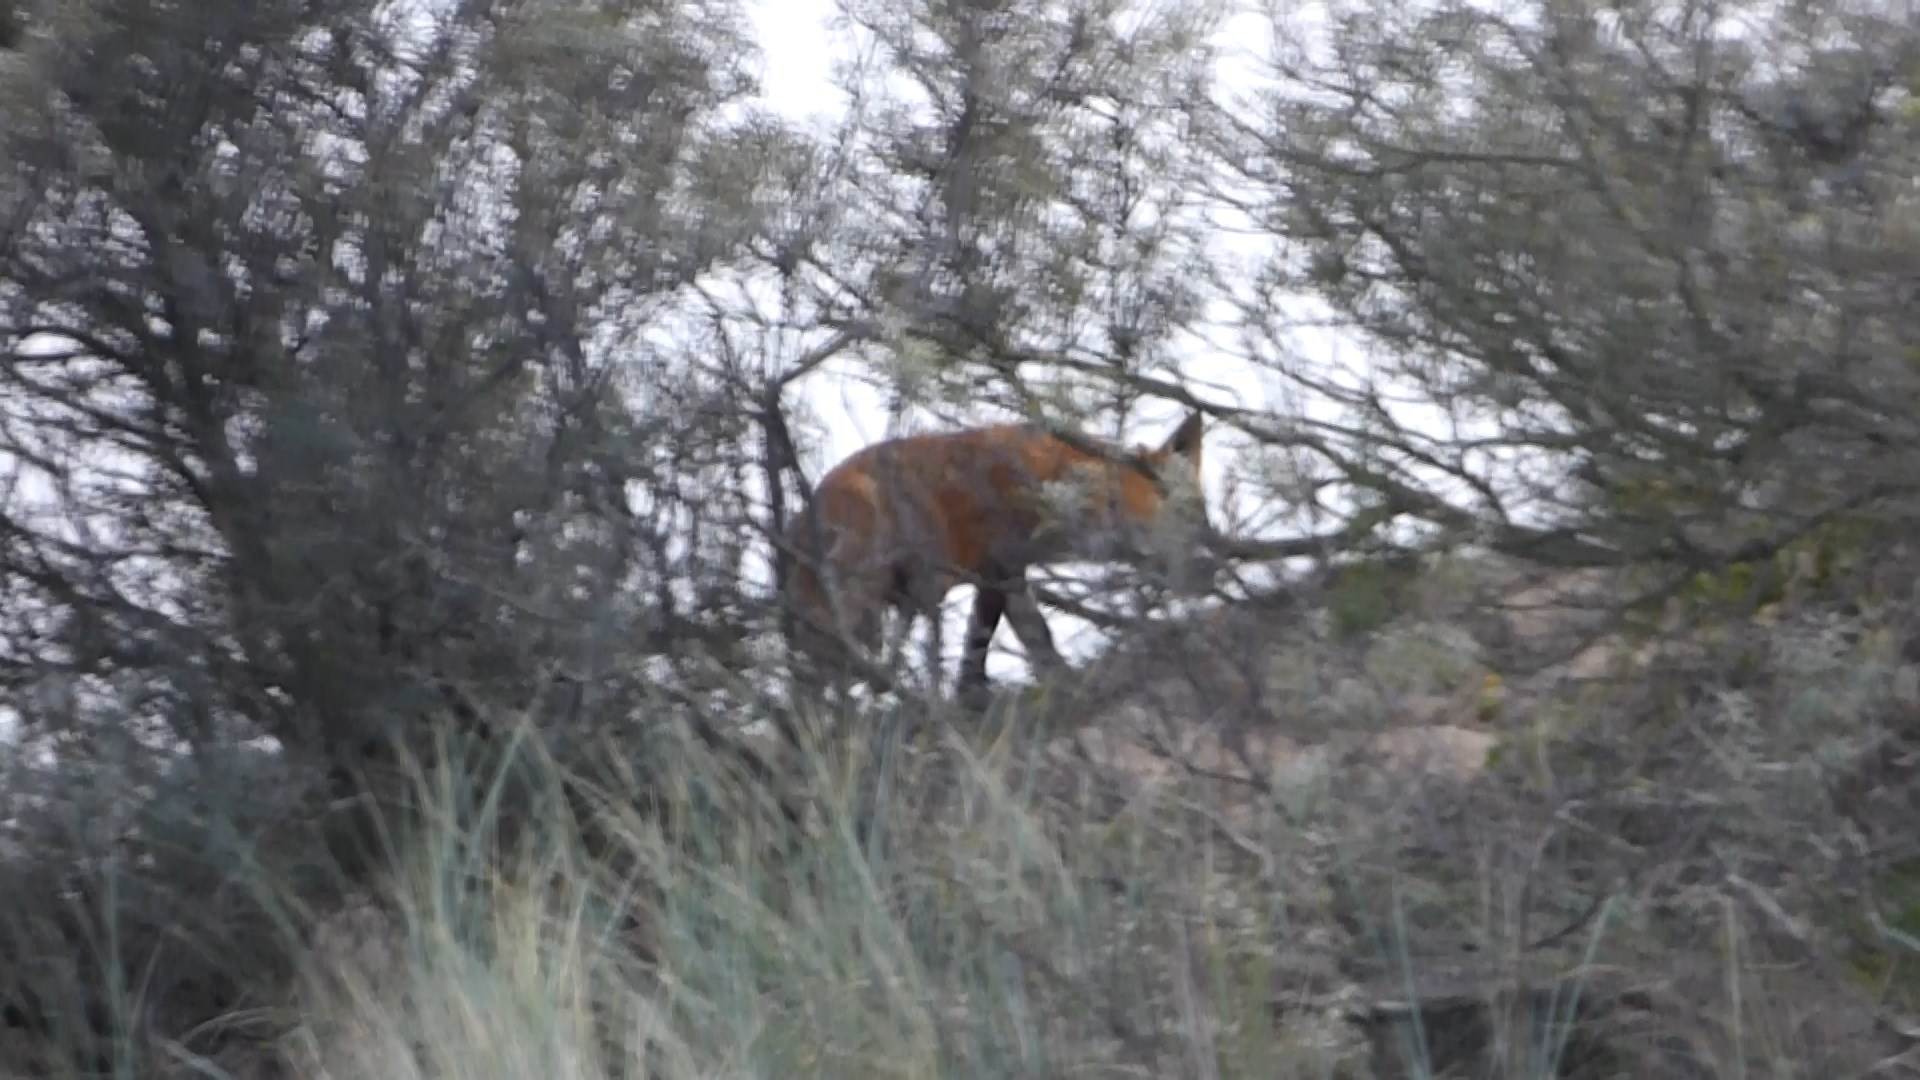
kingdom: Animalia
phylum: Chordata
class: Mammalia
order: Carnivora
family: Canidae
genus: Vulpes
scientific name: Vulpes vulpes
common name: Red fox
